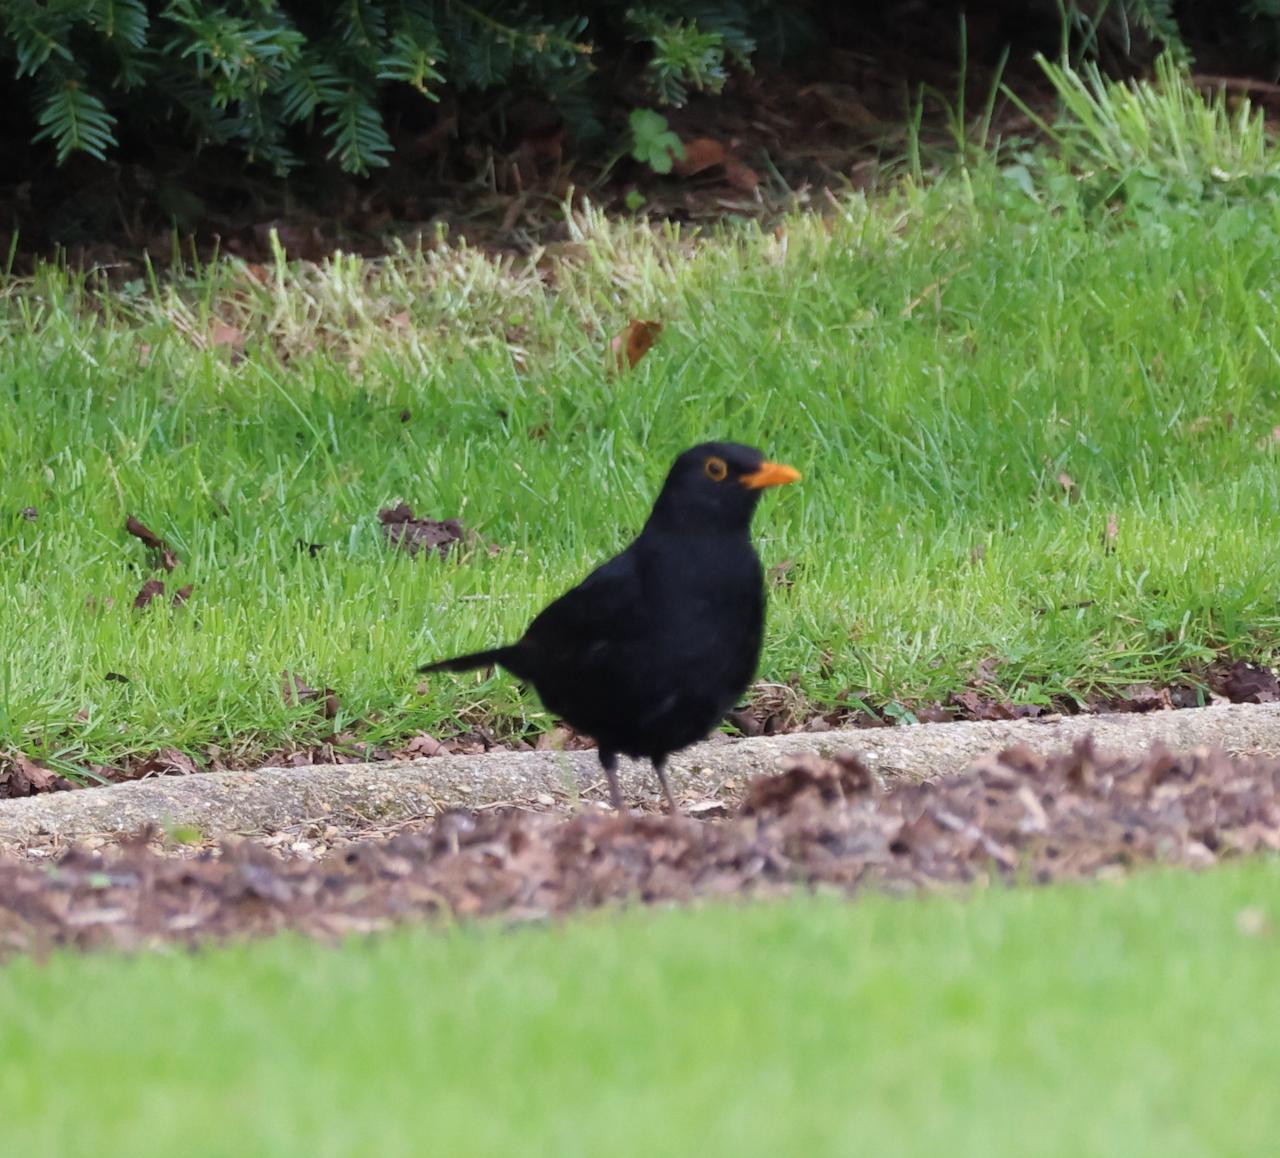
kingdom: Animalia
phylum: Chordata
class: Aves
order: Passeriformes
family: Turdidae
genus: Turdus
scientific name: Turdus merula
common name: Common blackbird
